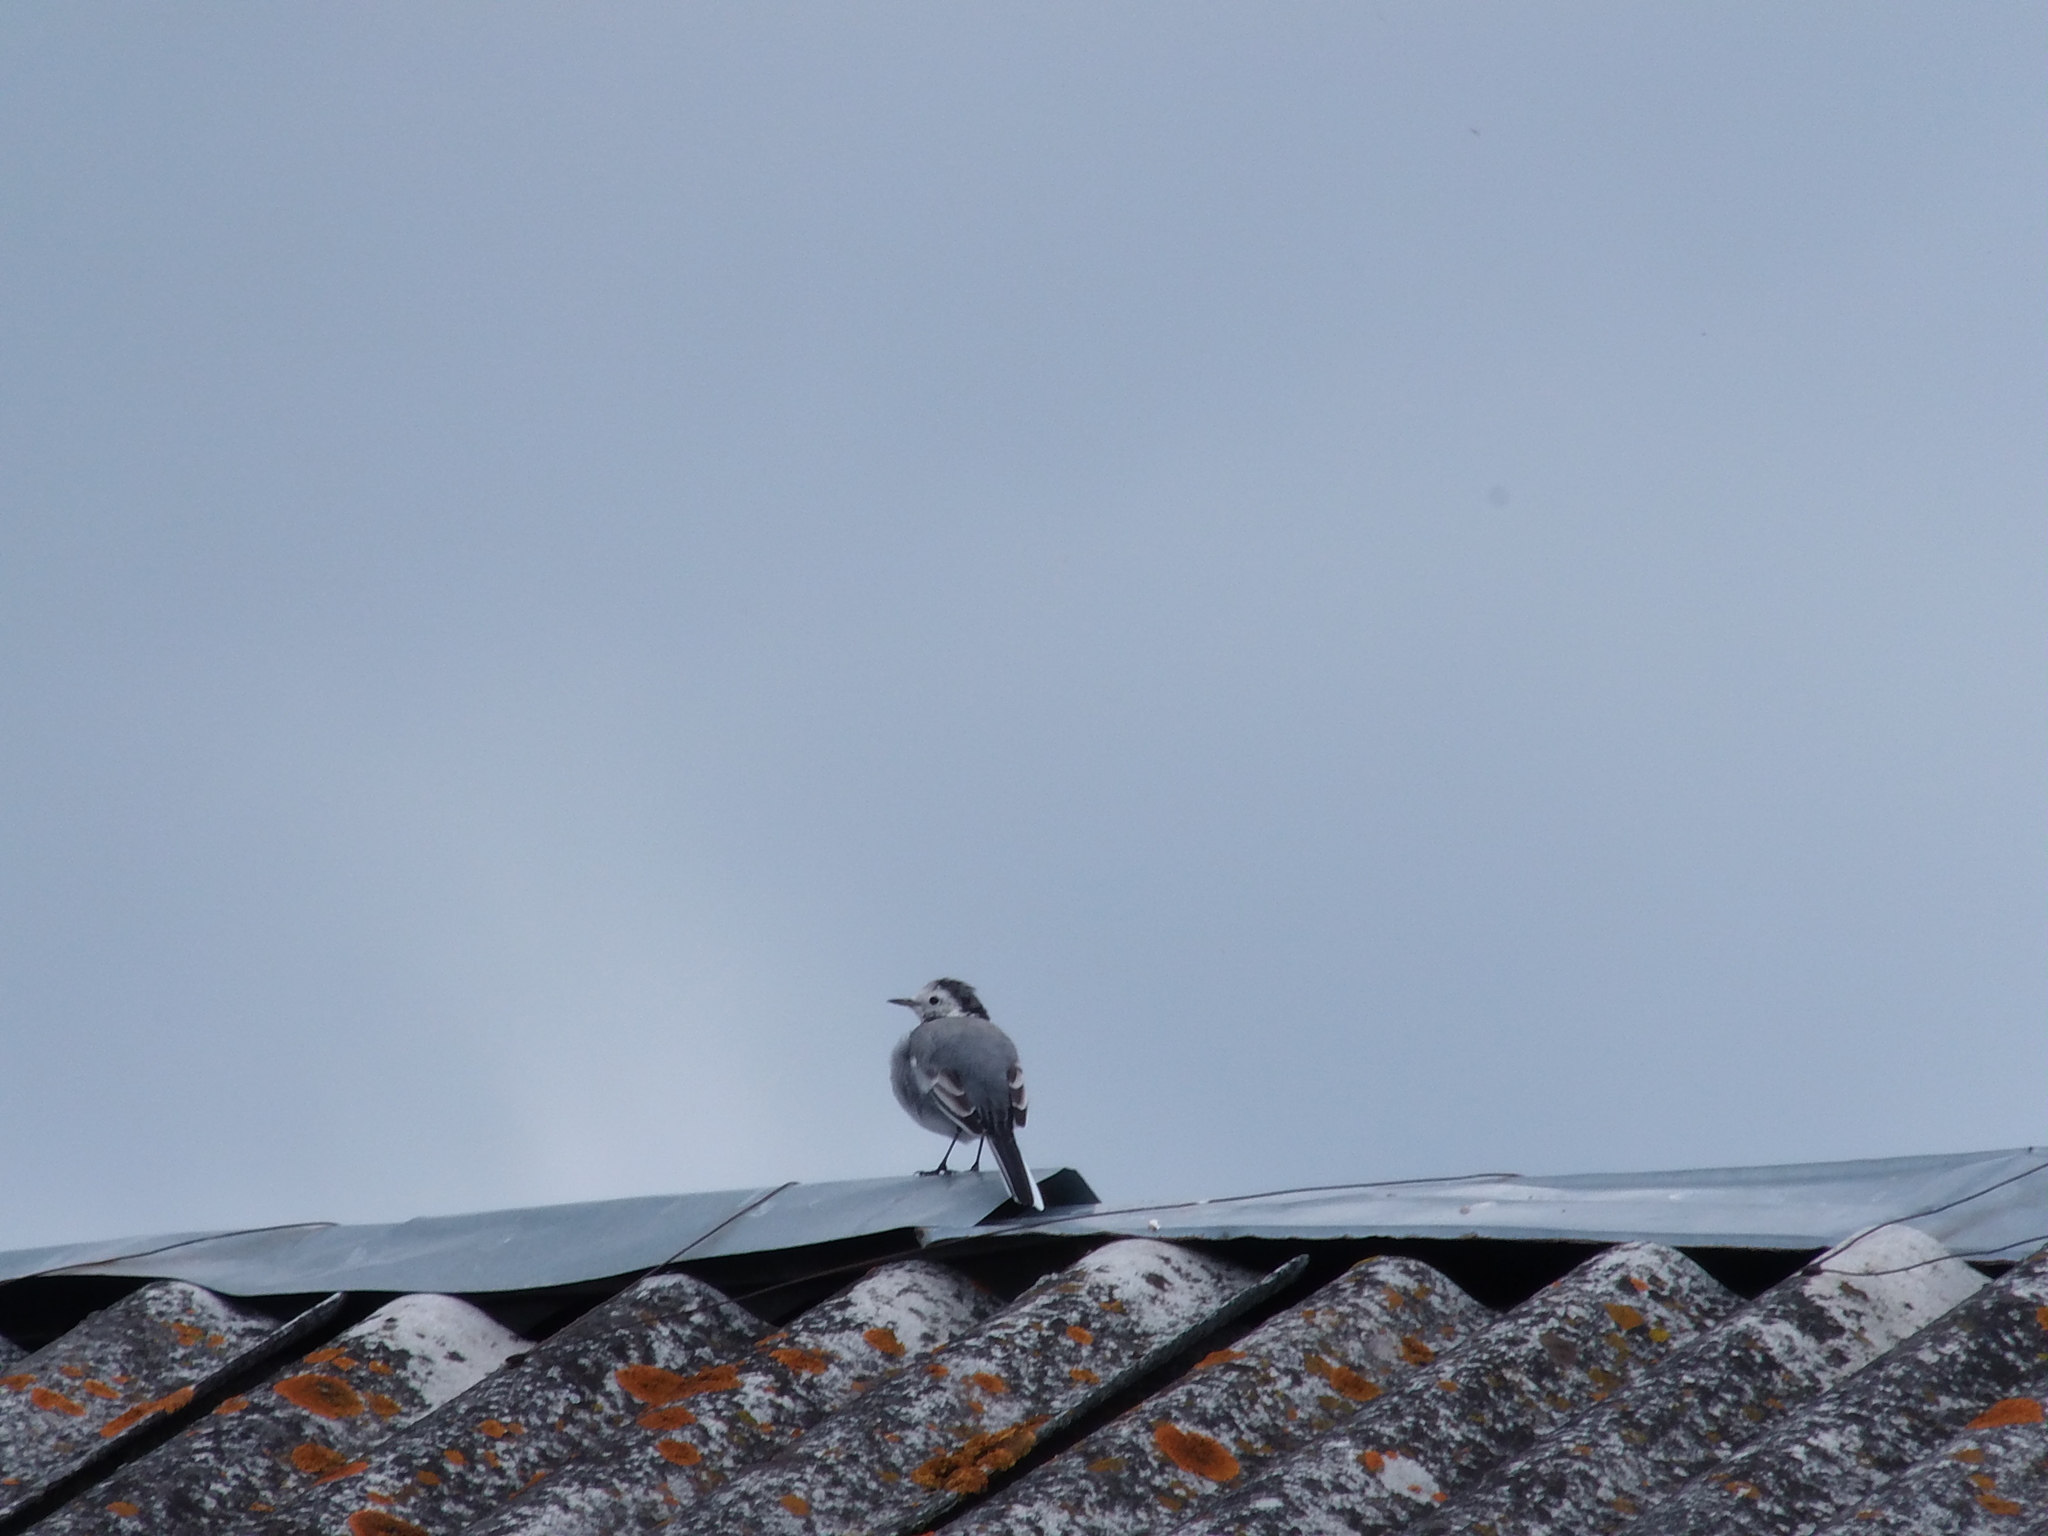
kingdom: Animalia
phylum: Chordata
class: Aves
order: Passeriformes
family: Motacillidae
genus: Motacilla
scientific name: Motacilla alba
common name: White wagtail
